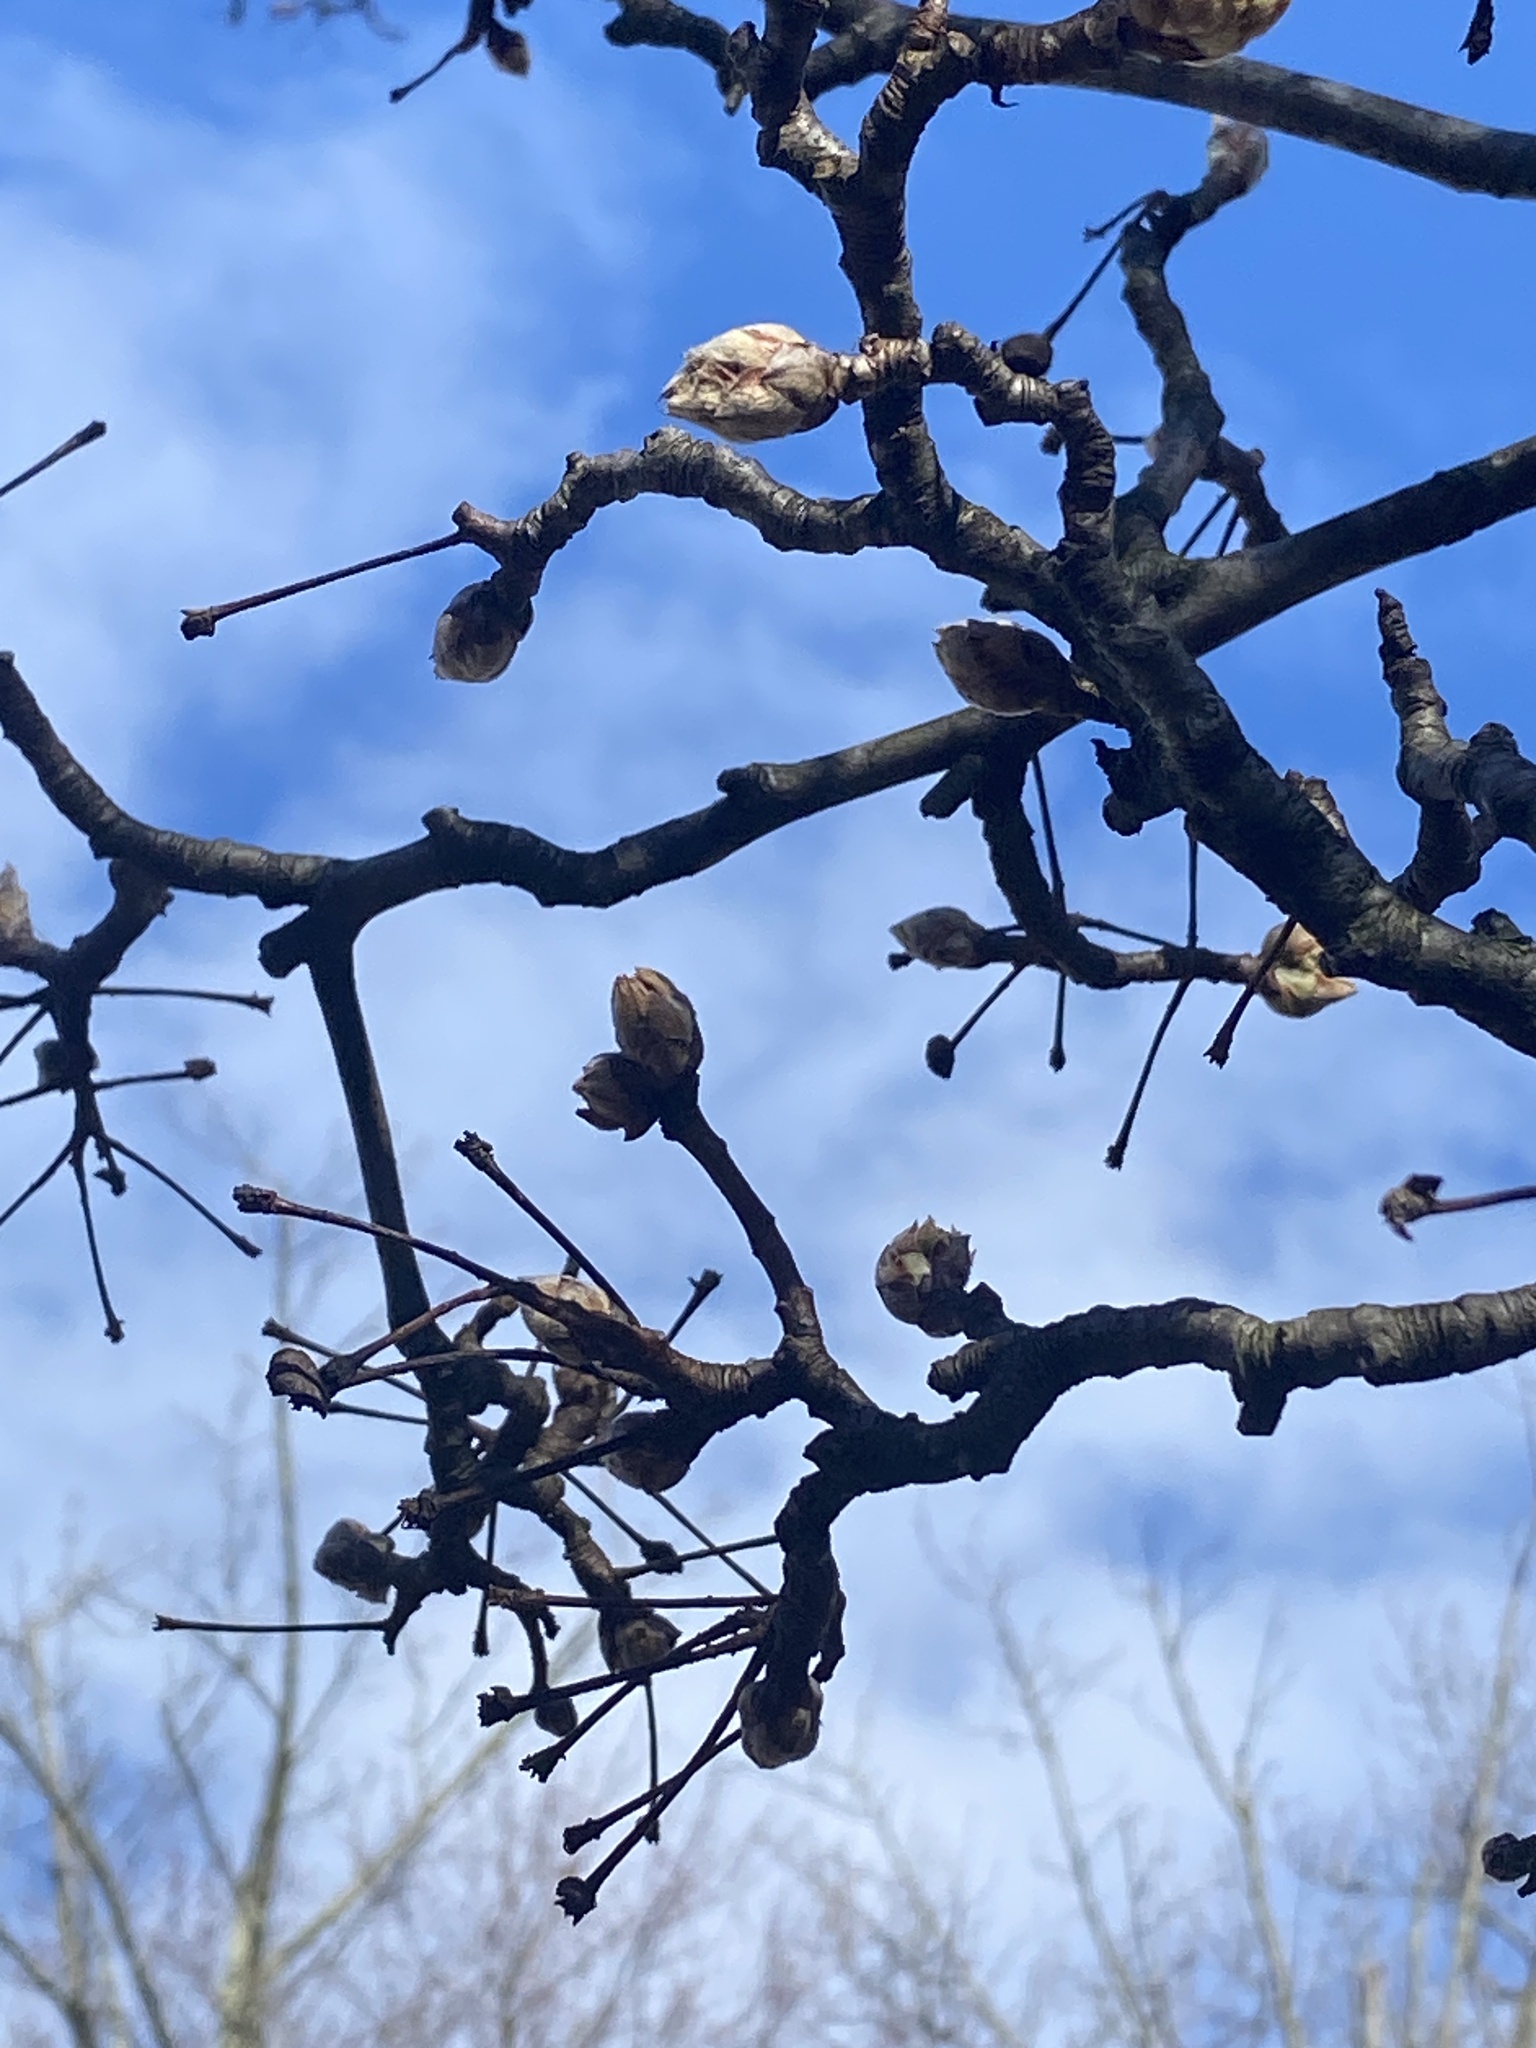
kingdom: Plantae
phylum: Tracheophyta
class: Magnoliopsida
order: Rosales
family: Rosaceae
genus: Pyrus
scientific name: Pyrus calleryana
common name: Callery pear
